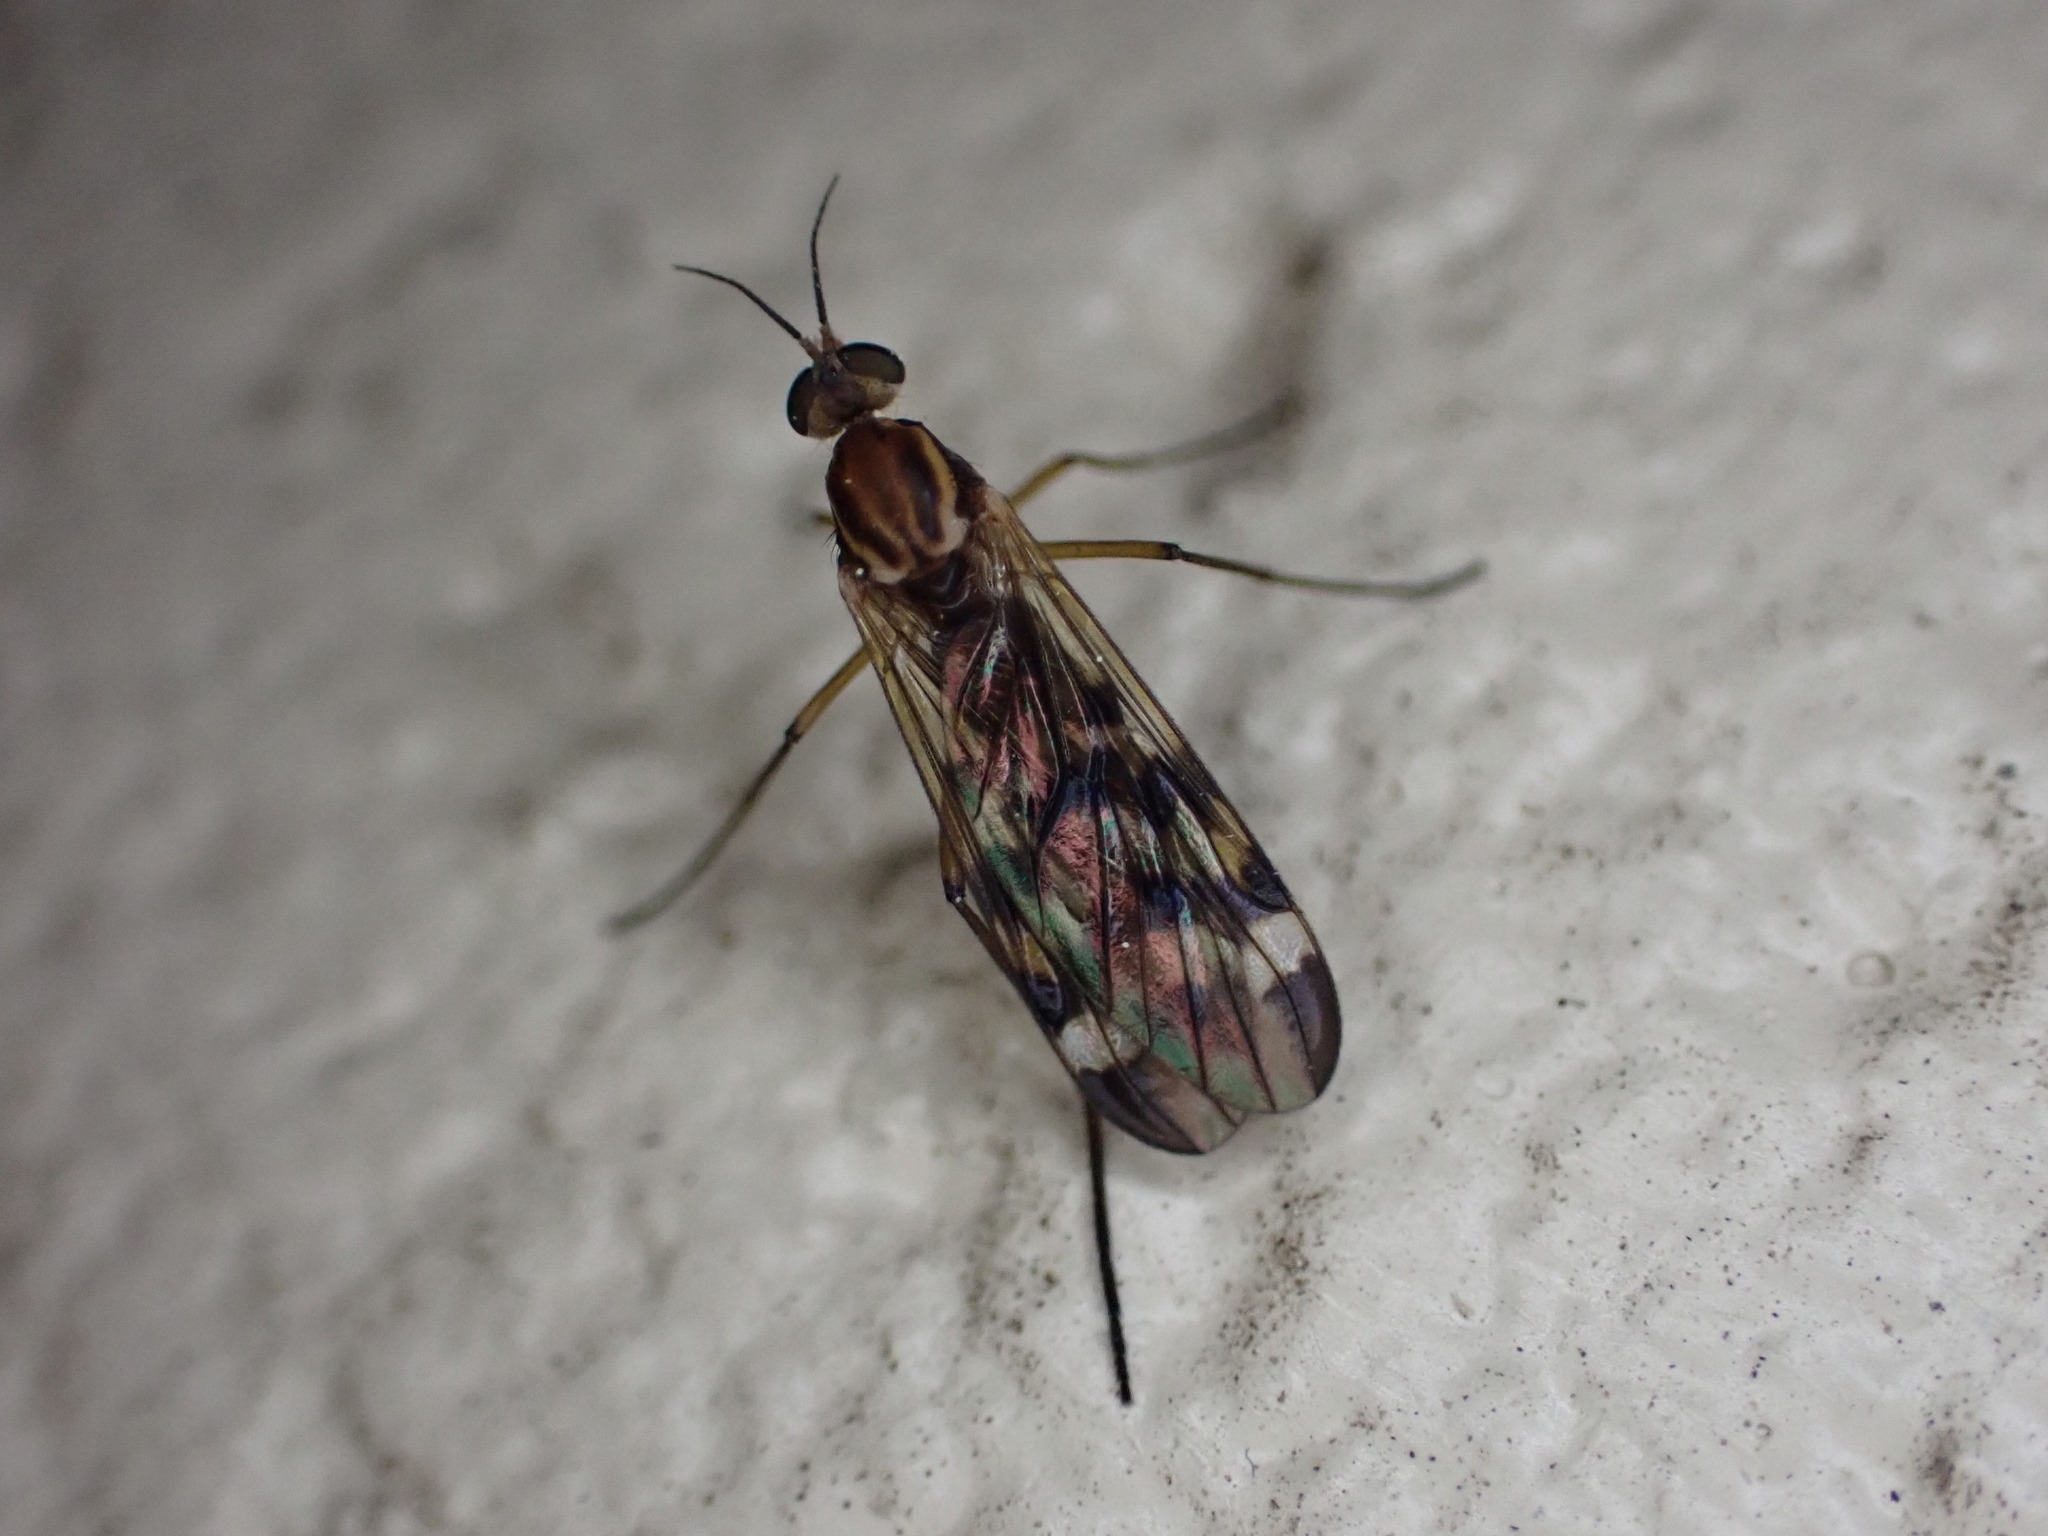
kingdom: Animalia
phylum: Arthropoda
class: Insecta
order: Diptera
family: Anisopodidae
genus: Sylvicola
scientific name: Sylvicola notatus
